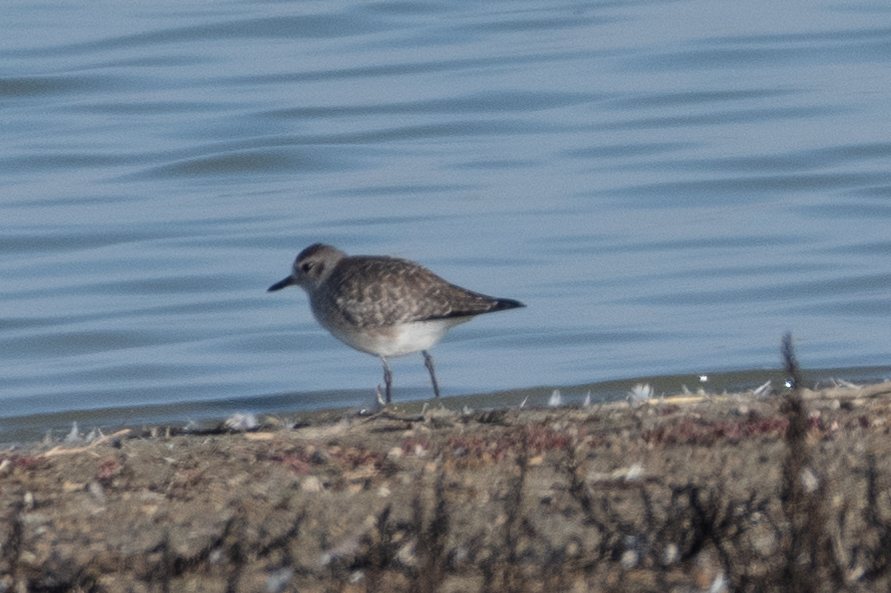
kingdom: Animalia
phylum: Chordata
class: Aves
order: Charadriiformes
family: Charadriidae
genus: Pluvialis
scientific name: Pluvialis squatarola
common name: Grey plover
